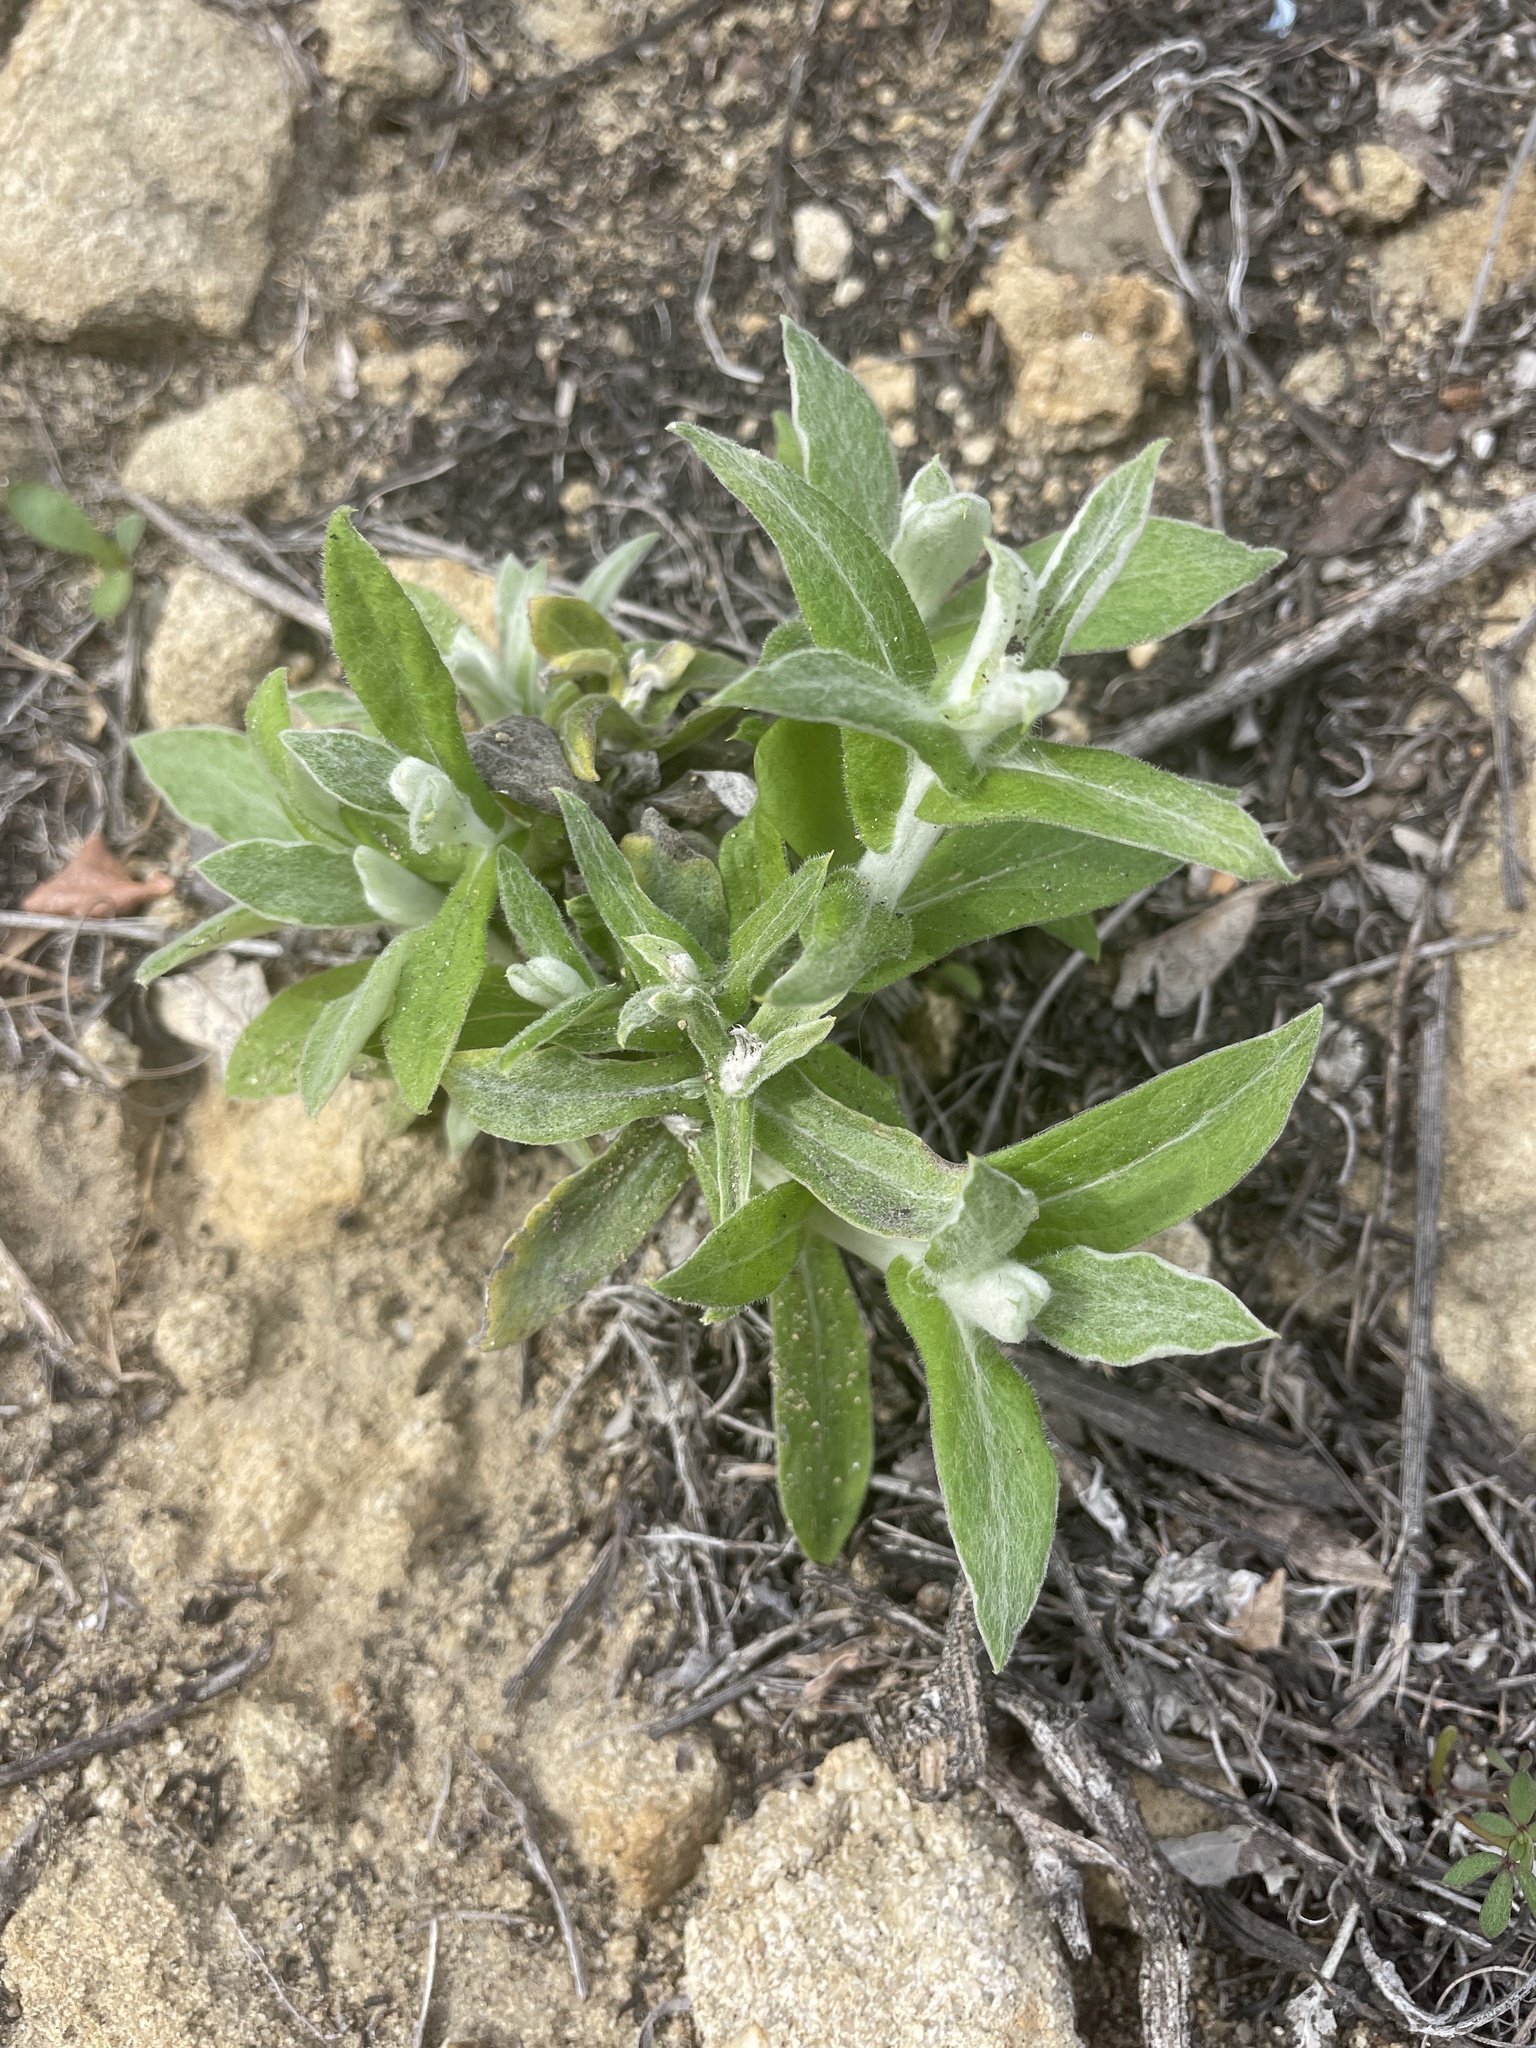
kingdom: Plantae
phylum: Tracheophyta
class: Magnoliopsida
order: Asterales
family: Asteraceae
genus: Pseudognaphalium
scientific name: Pseudognaphalium biolettii
